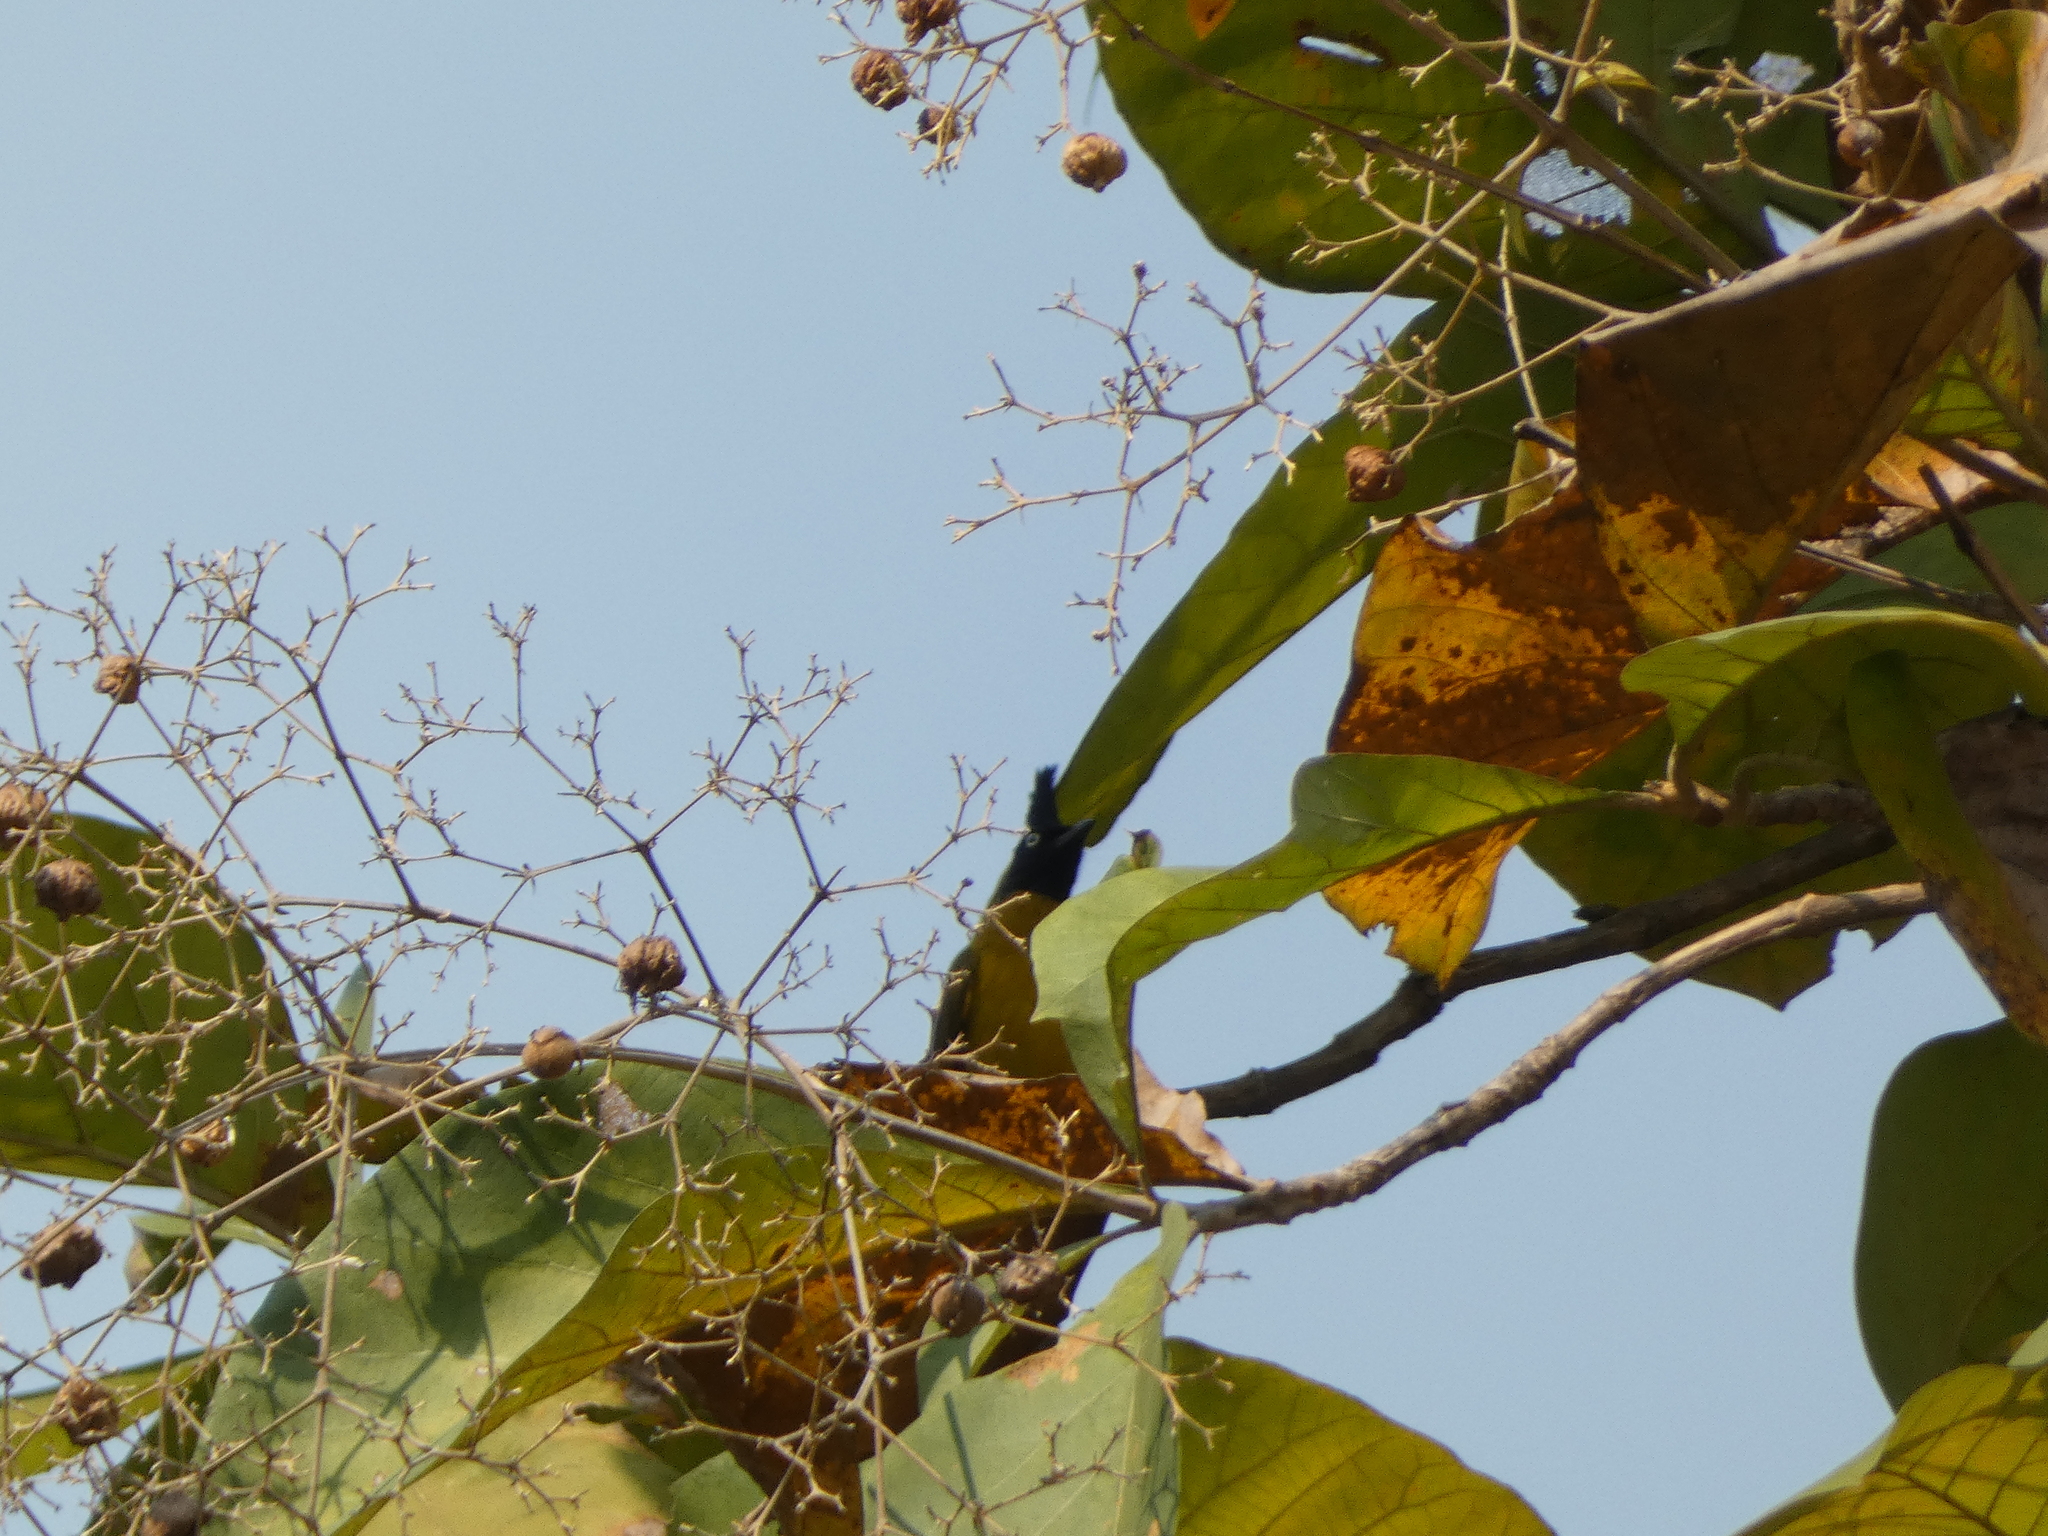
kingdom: Plantae
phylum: Tracheophyta
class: Magnoliopsida
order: Lamiales
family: Lamiaceae
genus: Tectona
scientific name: Tectona grandis
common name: Teak
